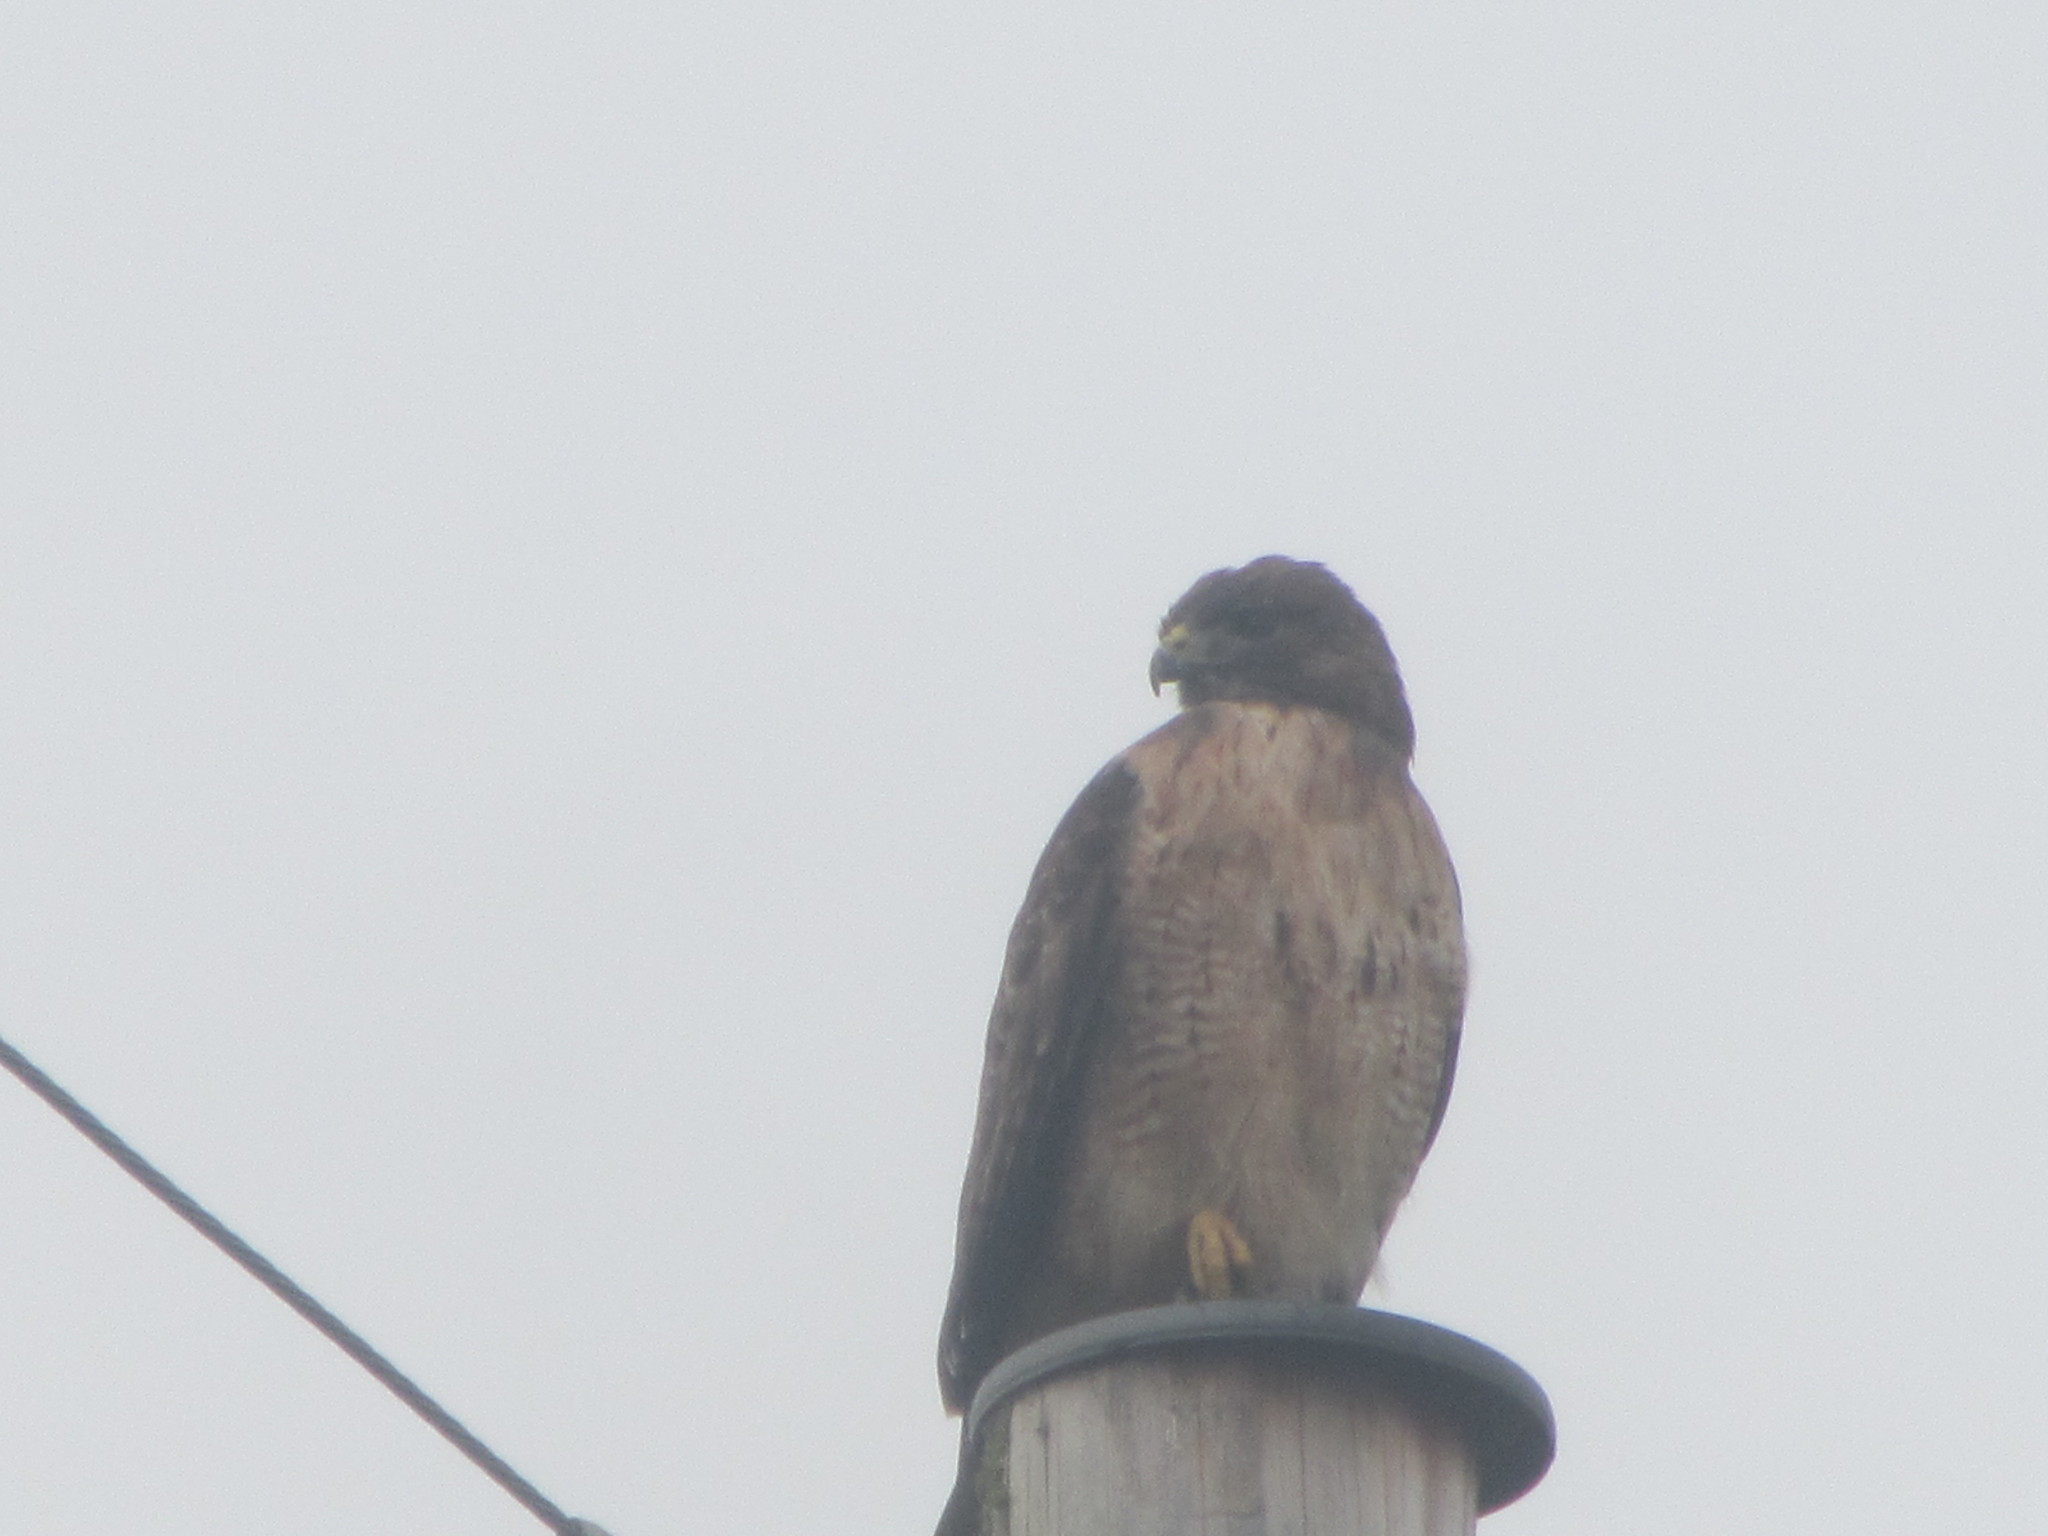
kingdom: Animalia
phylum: Chordata
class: Aves
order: Accipitriformes
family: Accipitridae
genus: Buteo
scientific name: Buteo jamaicensis
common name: Red-tailed hawk
